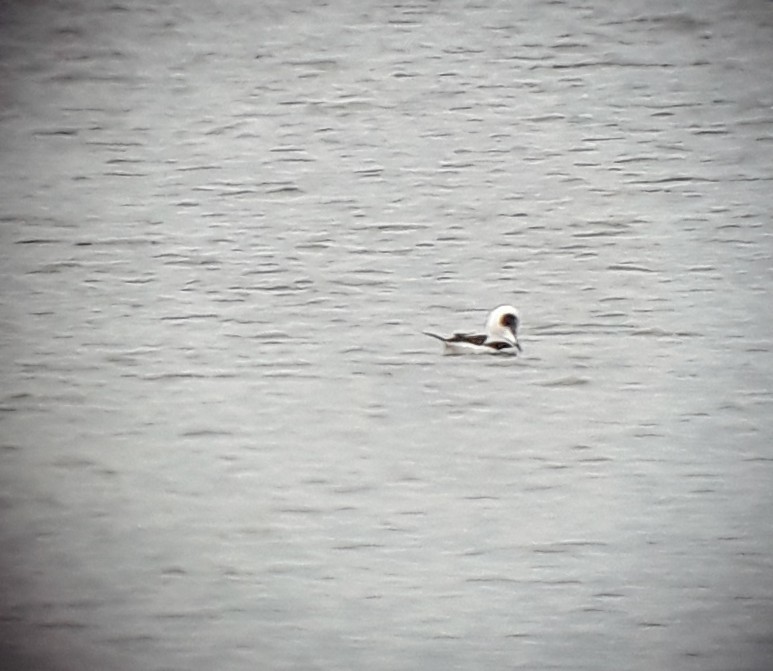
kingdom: Animalia
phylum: Chordata
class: Aves
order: Anseriformes
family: Anatidae
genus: Clangula
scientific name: Clangula hyemalis
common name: Long-tailed duck
